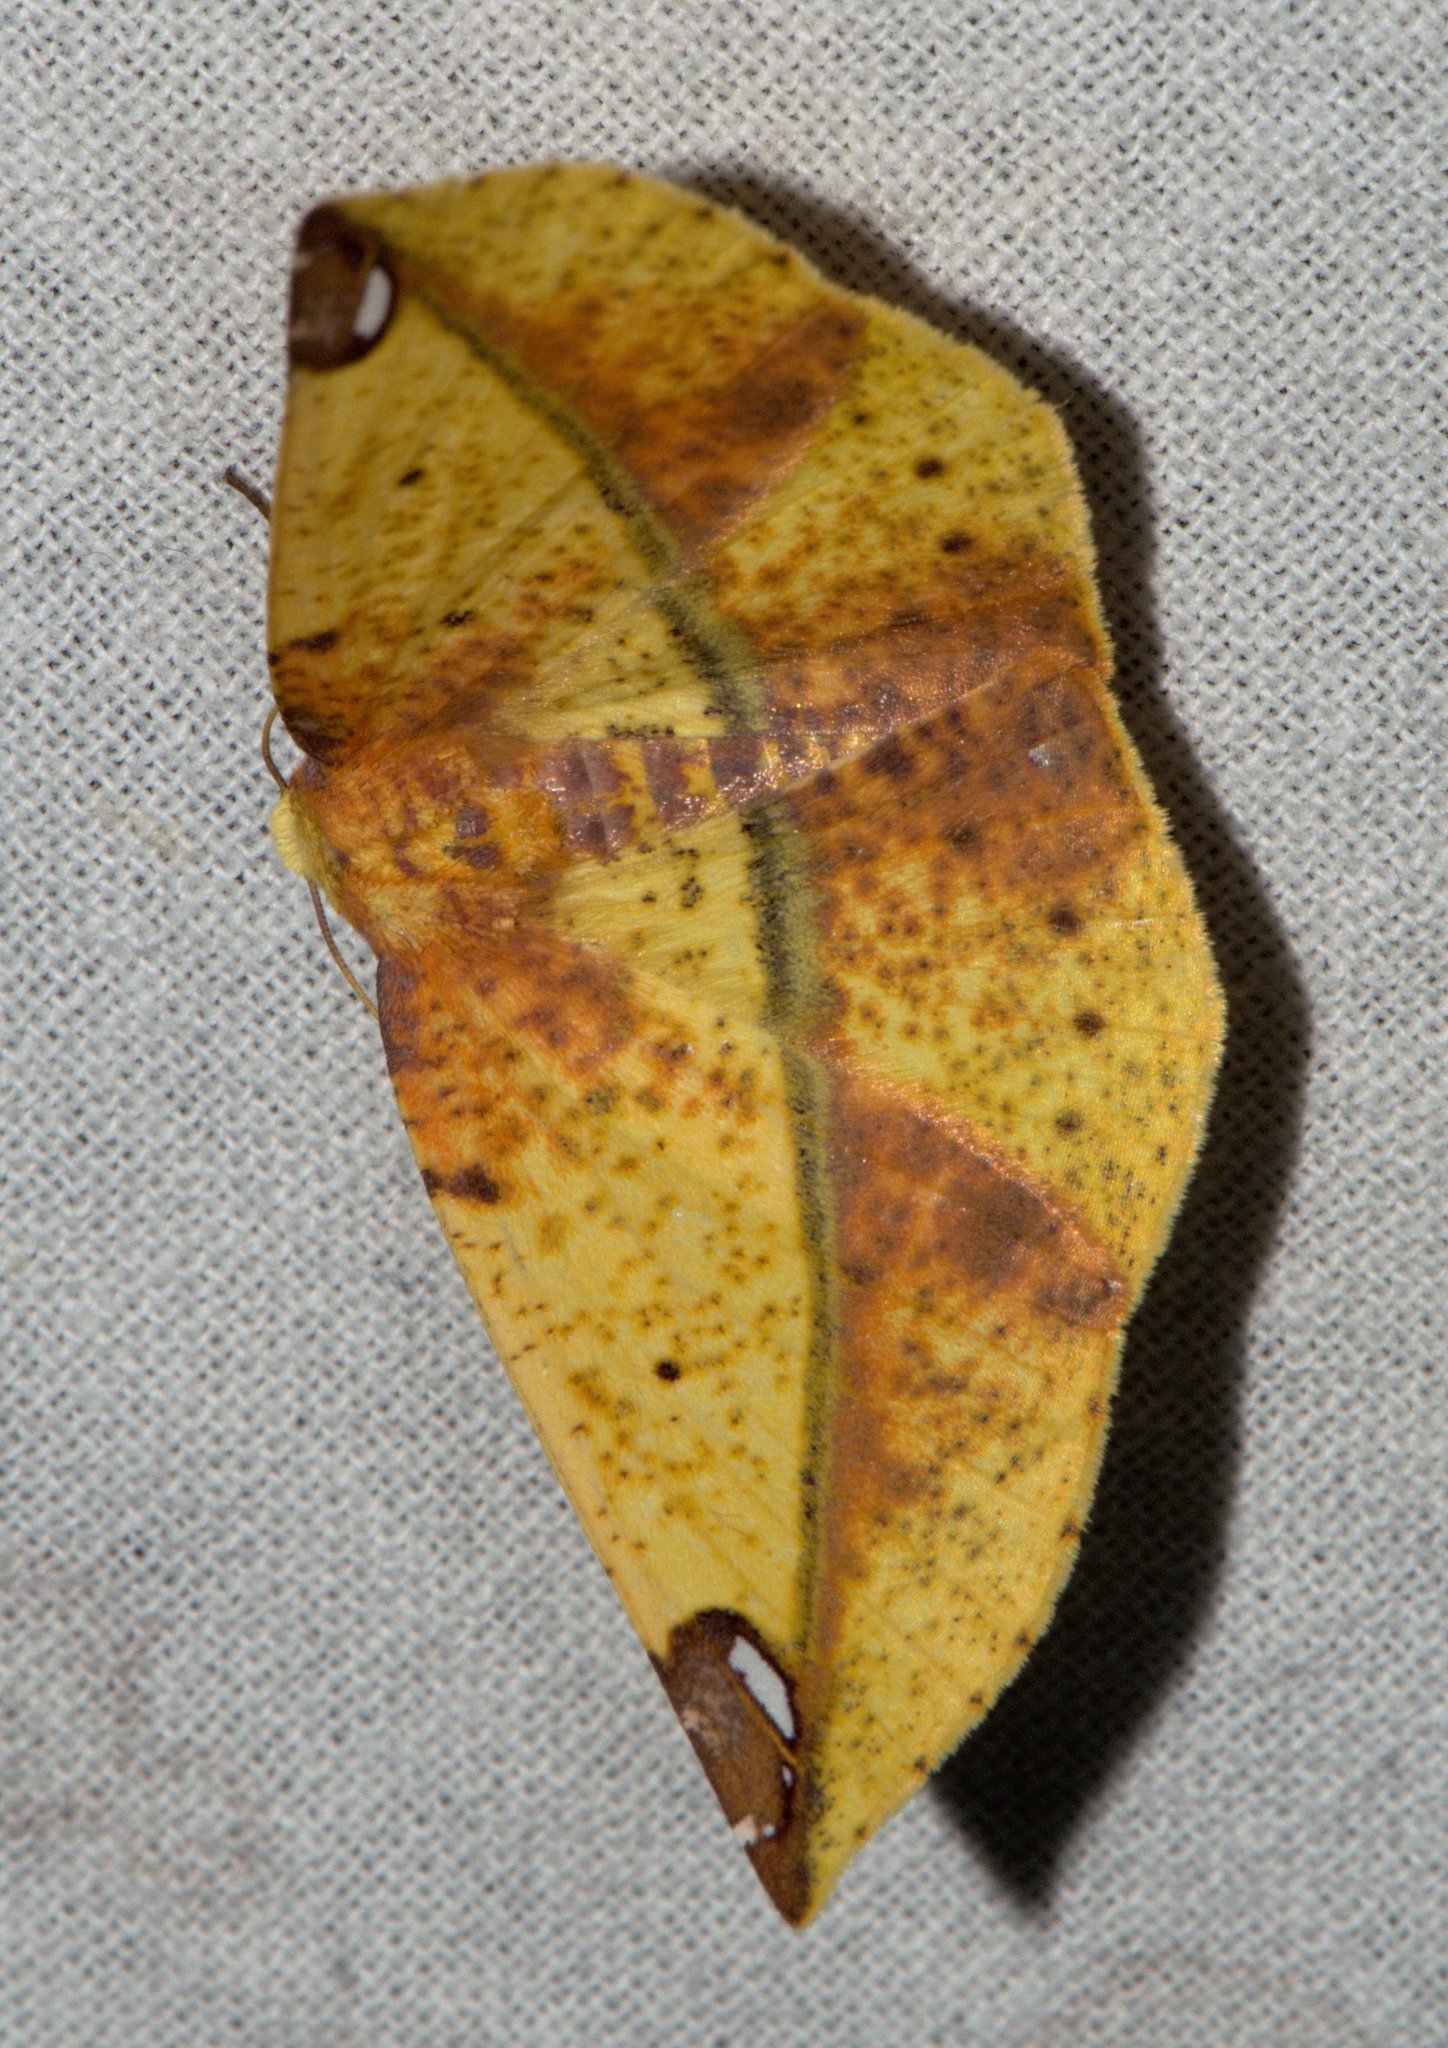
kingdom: Animalia
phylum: Arthropoda
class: Insecta
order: Lepidoptera
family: Geometridae
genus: Mimomiza
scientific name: Mimomiza cruentaria
